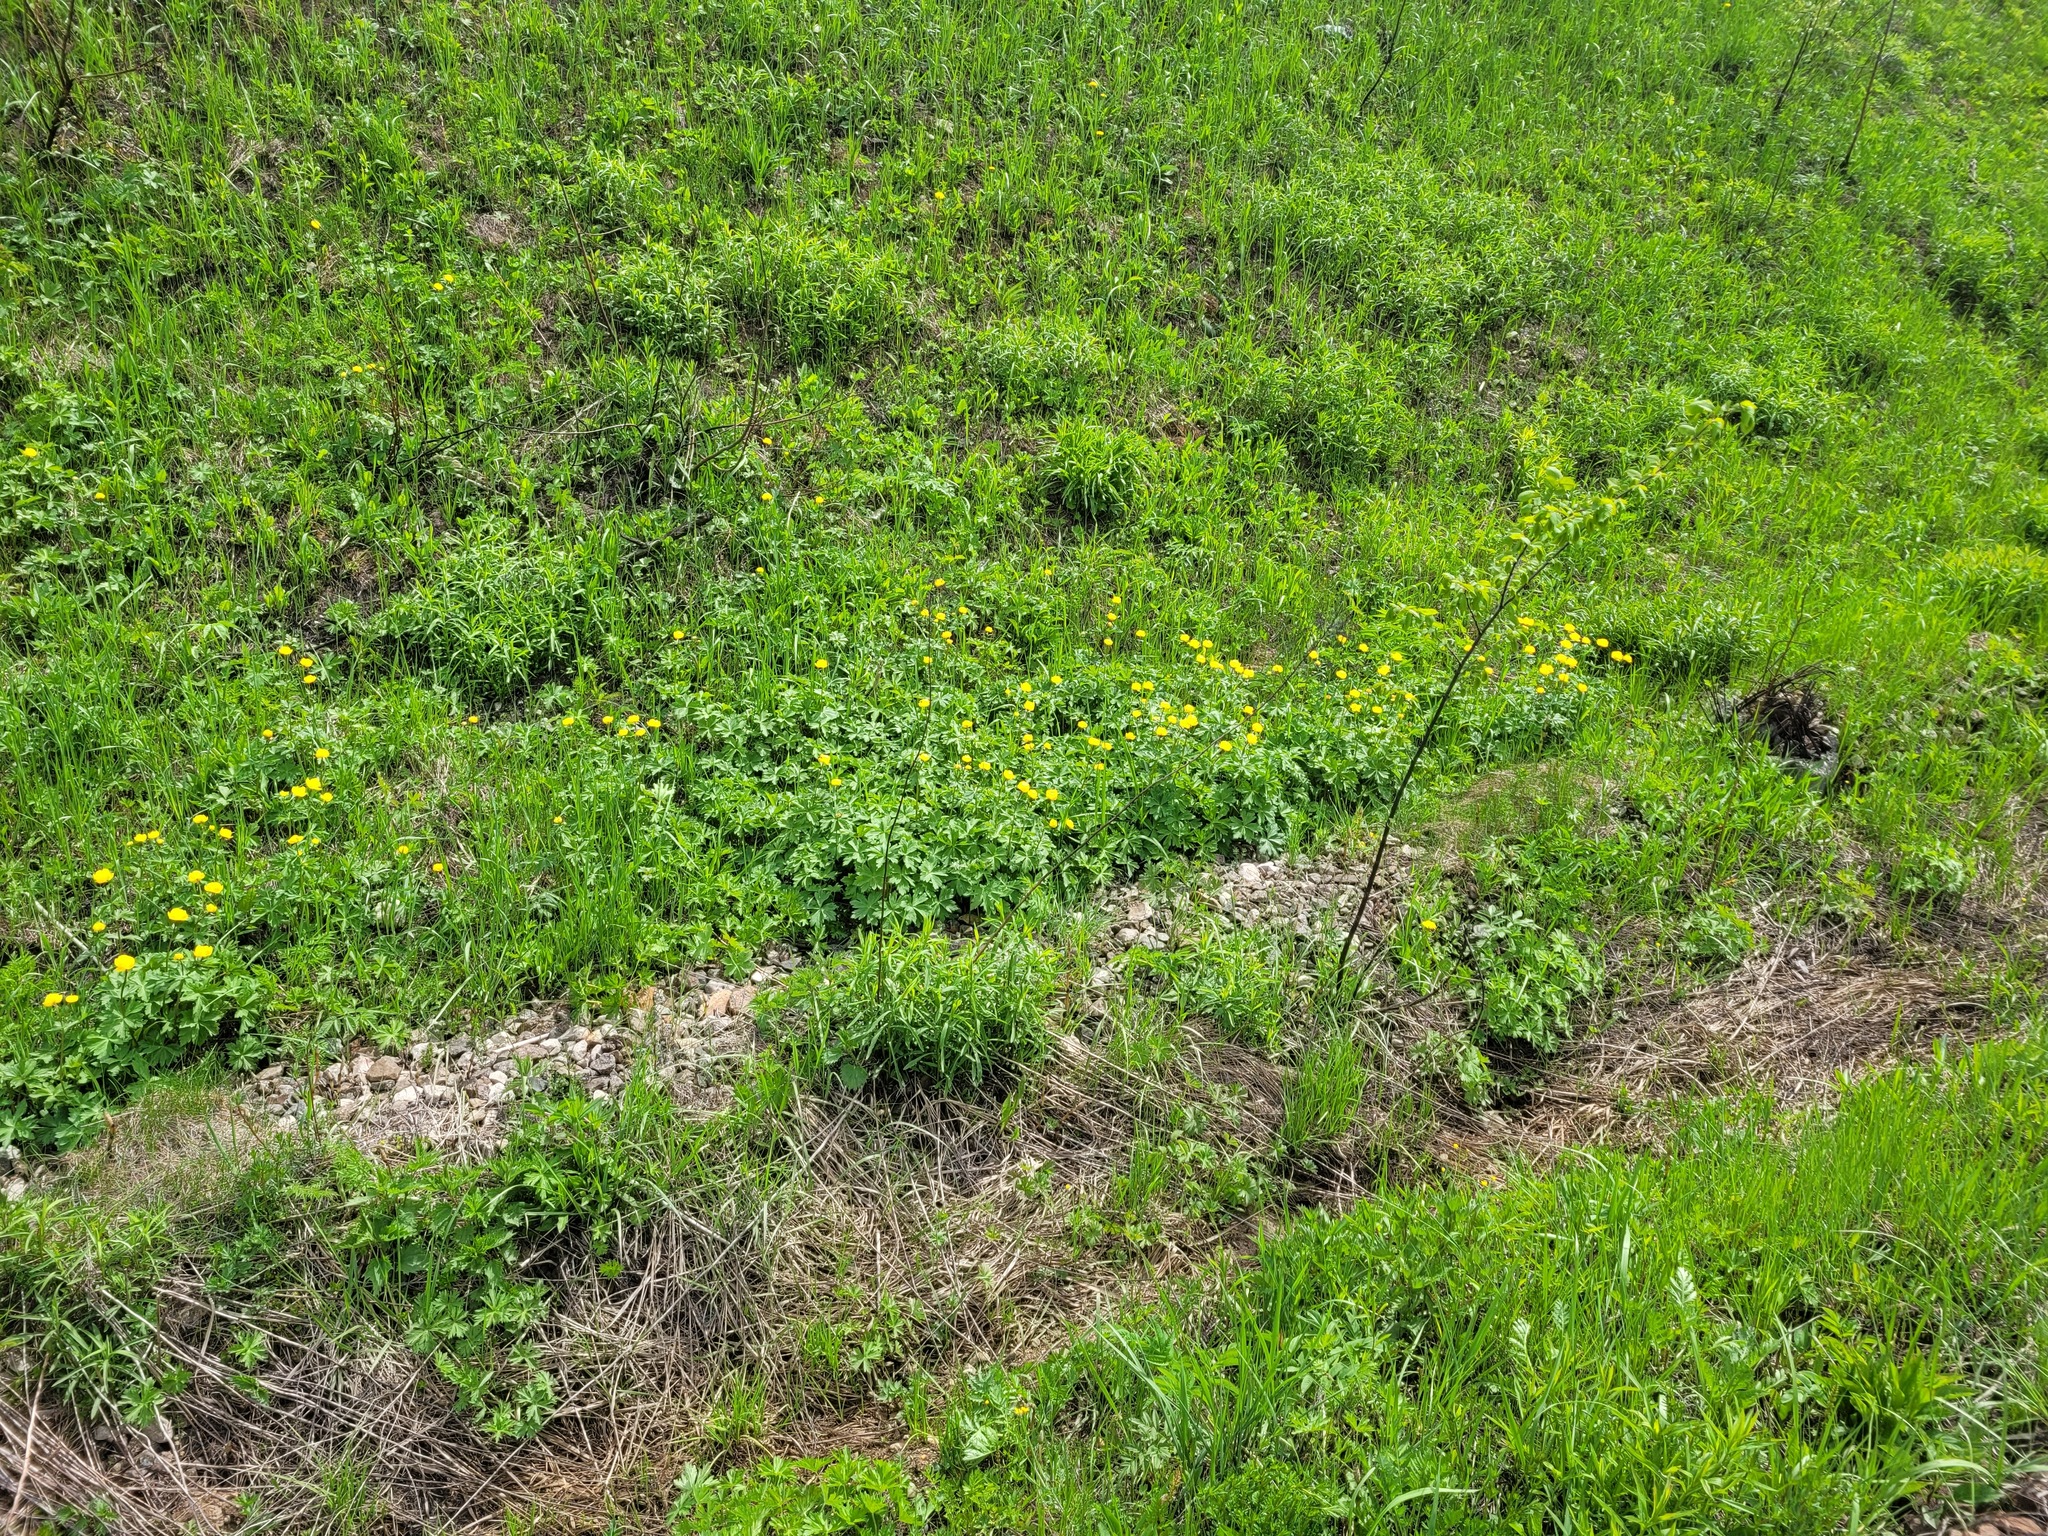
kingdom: Plantae
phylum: Tracheophyta
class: Magnoliopsida
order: Ranunculales
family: Ranunculaceae
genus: Trollius
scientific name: Trollius europaeus
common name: European globeflower
